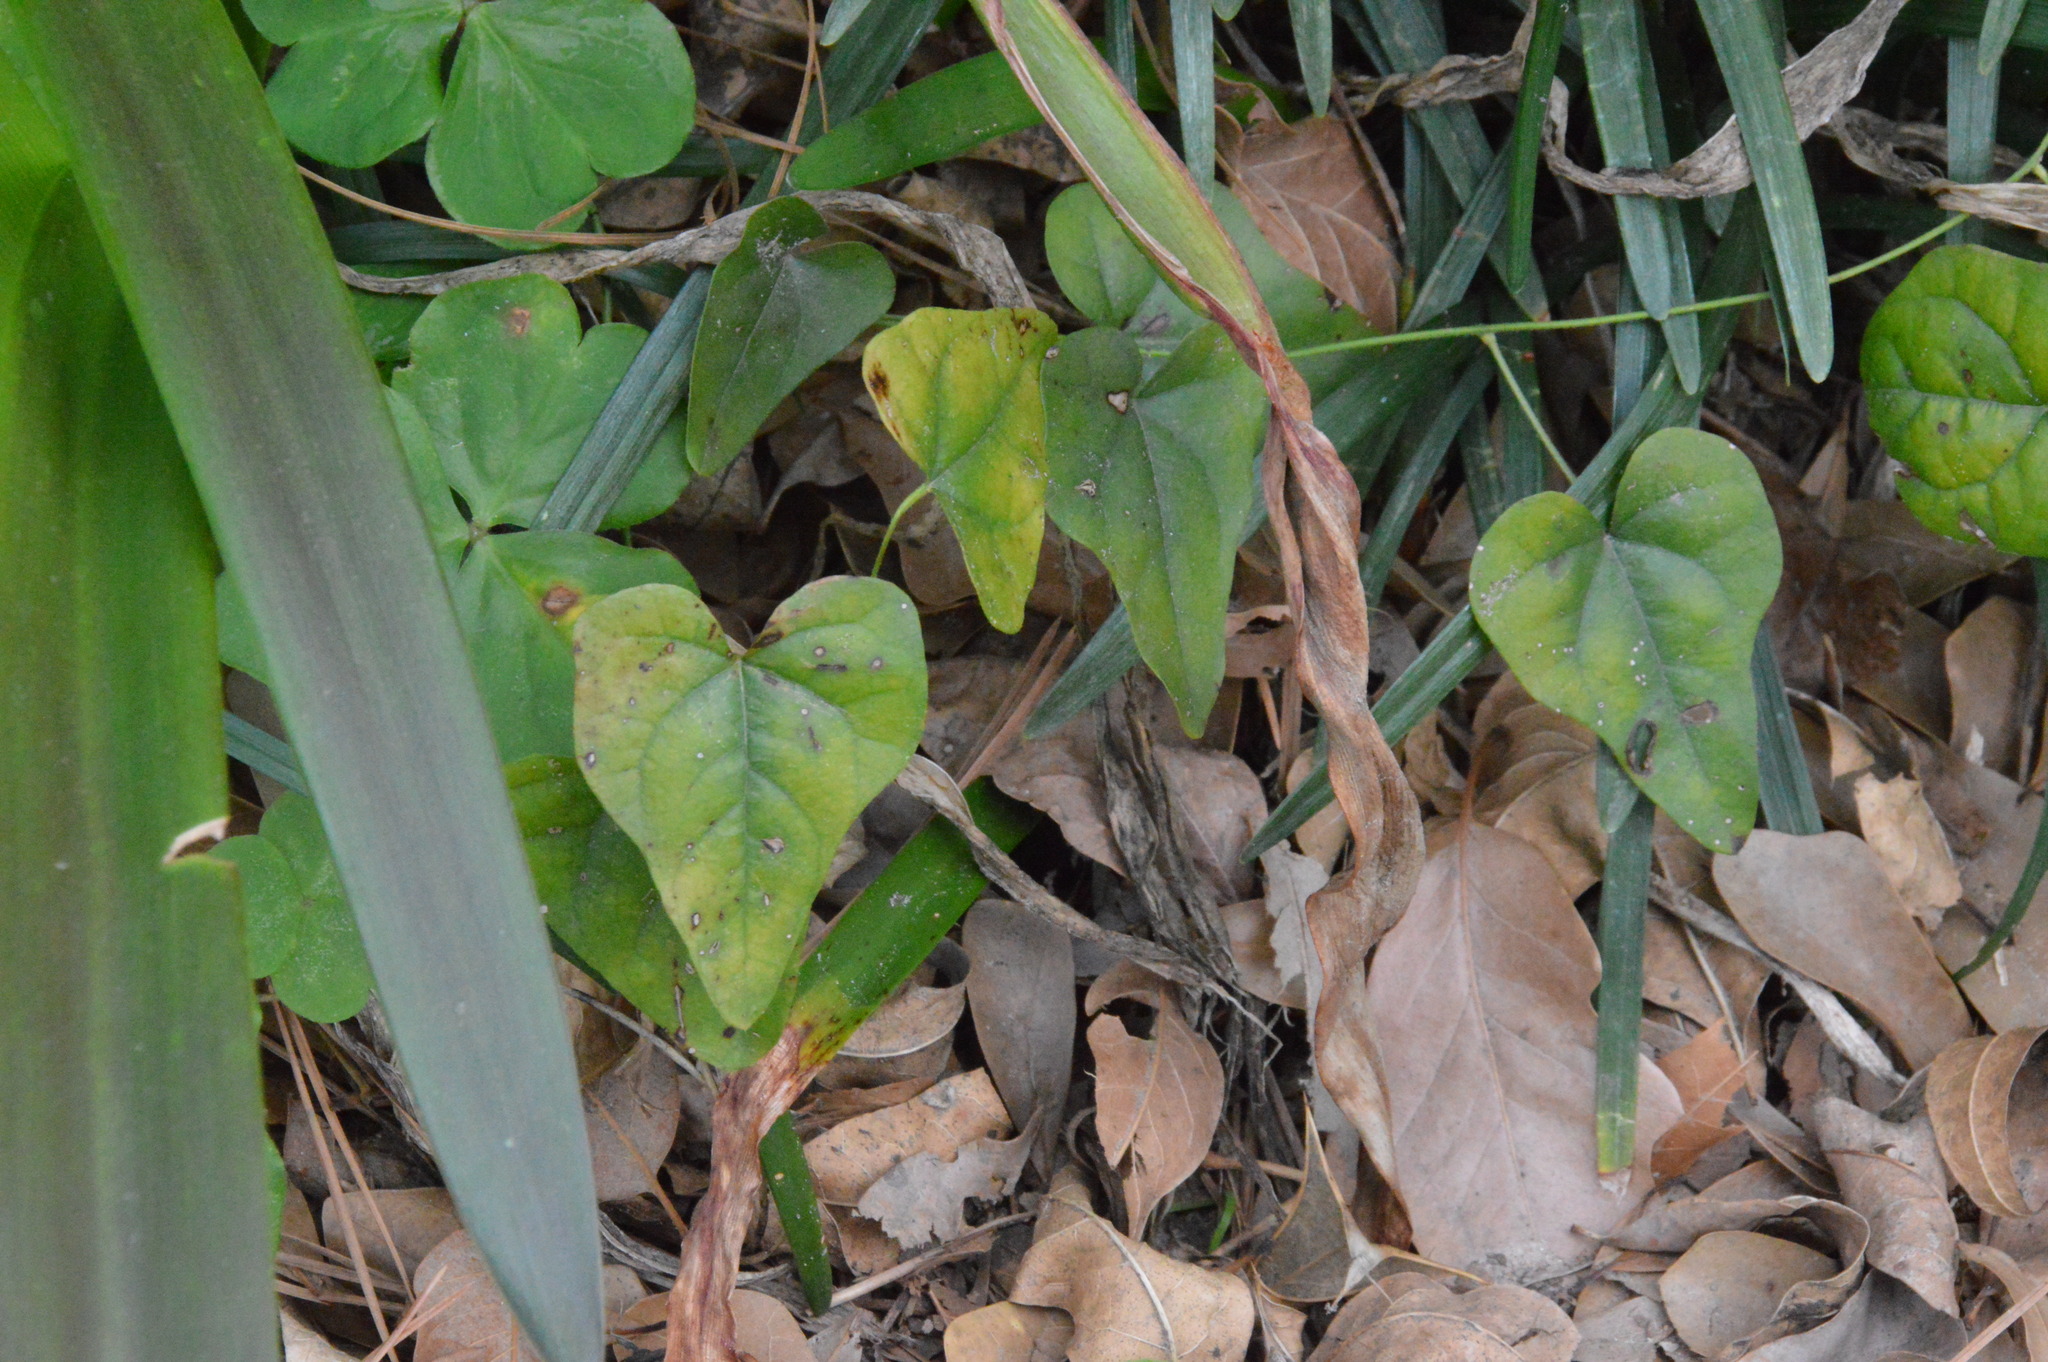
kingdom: Plantae
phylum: Tracheophyta
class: Magnoliopsida
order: Ranunculales
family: Menispermaceae
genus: Cocculus
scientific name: Cocculus carolinus
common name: Carolina moonseed
